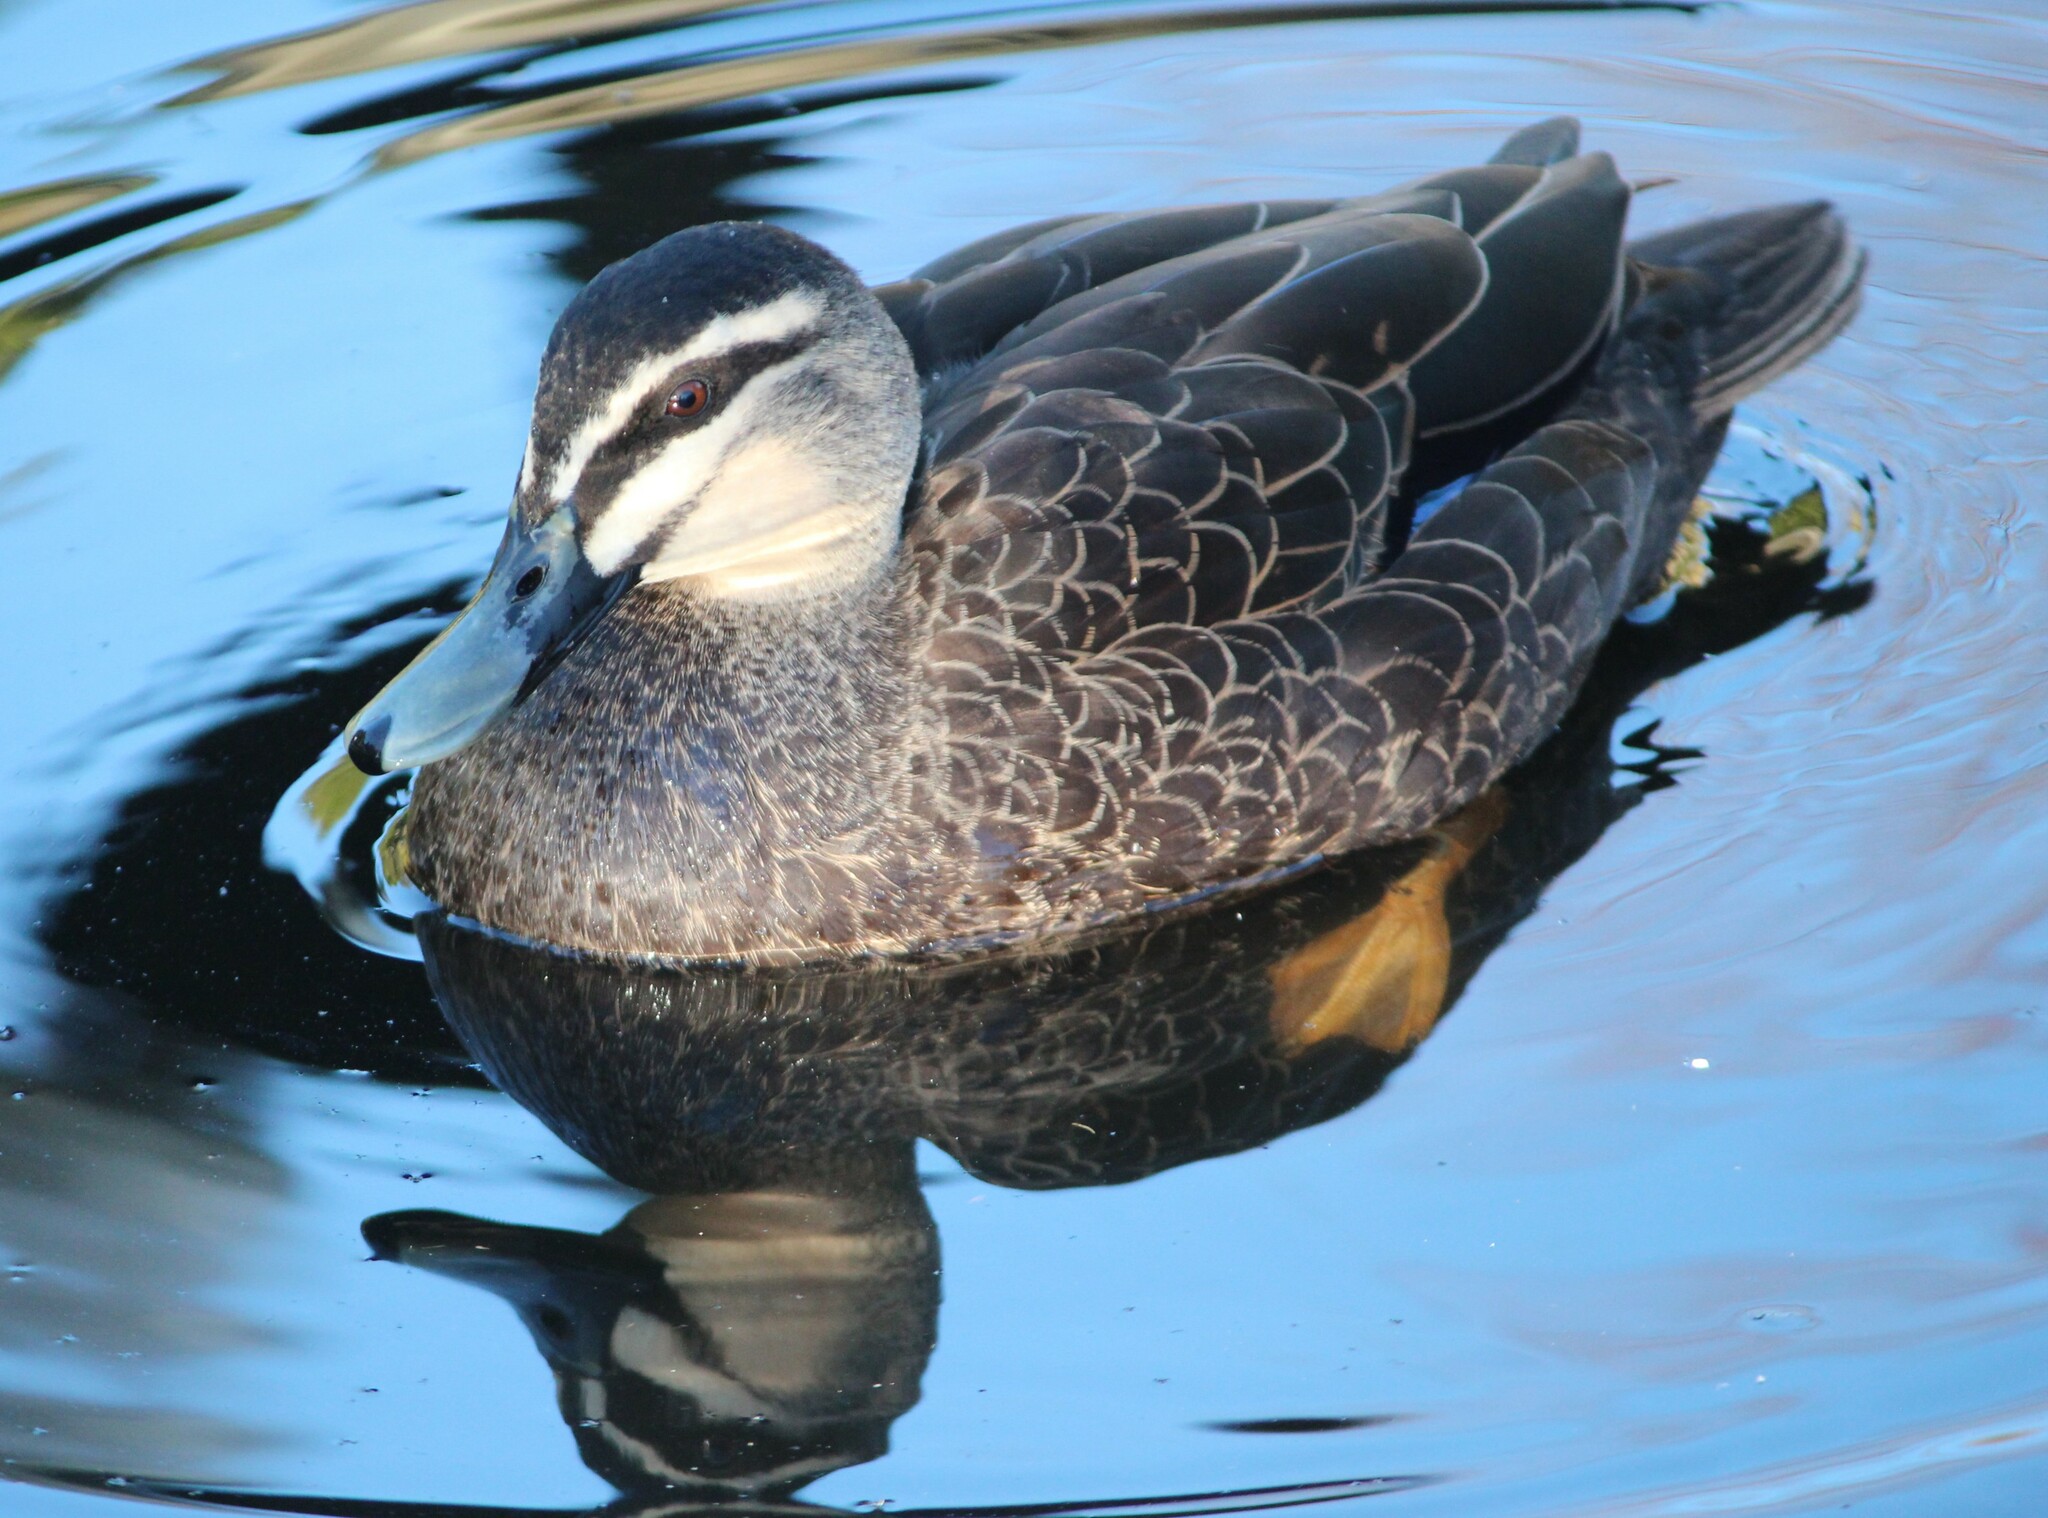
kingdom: Animalia
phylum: Chordata
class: Aves
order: Anseriformes
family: Anatidae
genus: Anas
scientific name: Anas superciliosa
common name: Pacific black duck
